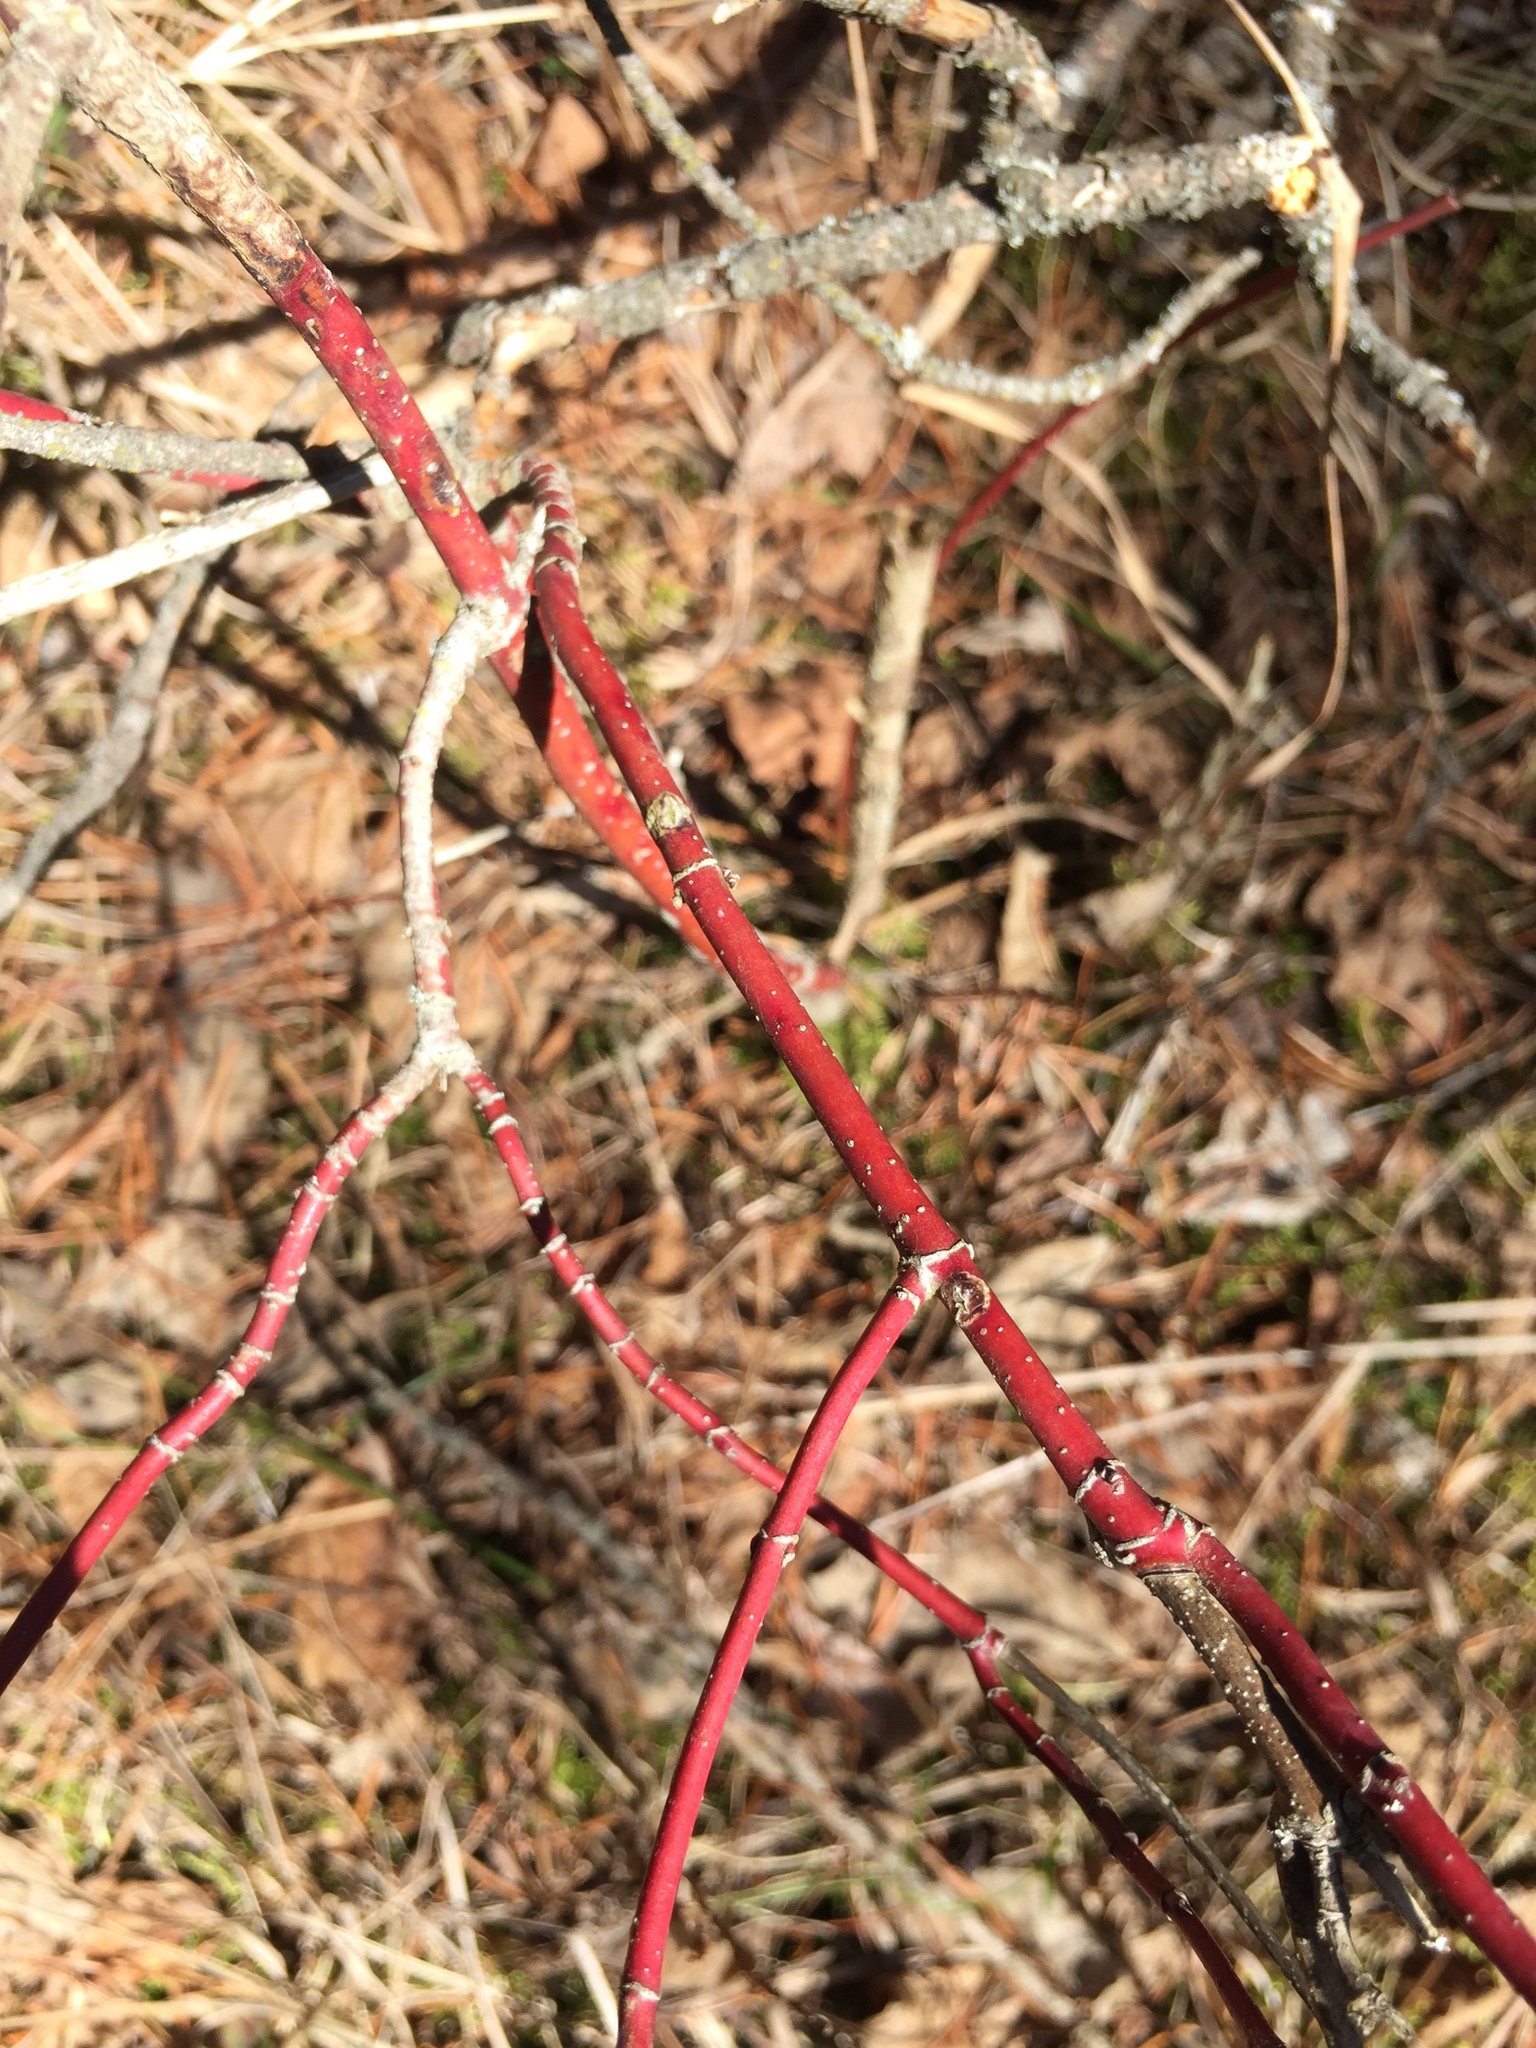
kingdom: Plantae
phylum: Tracheophyta
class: Magnoliopsida
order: Cornales
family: Cornaceae
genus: Cornus
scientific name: Cornus sericea
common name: Red-osier dogwood
